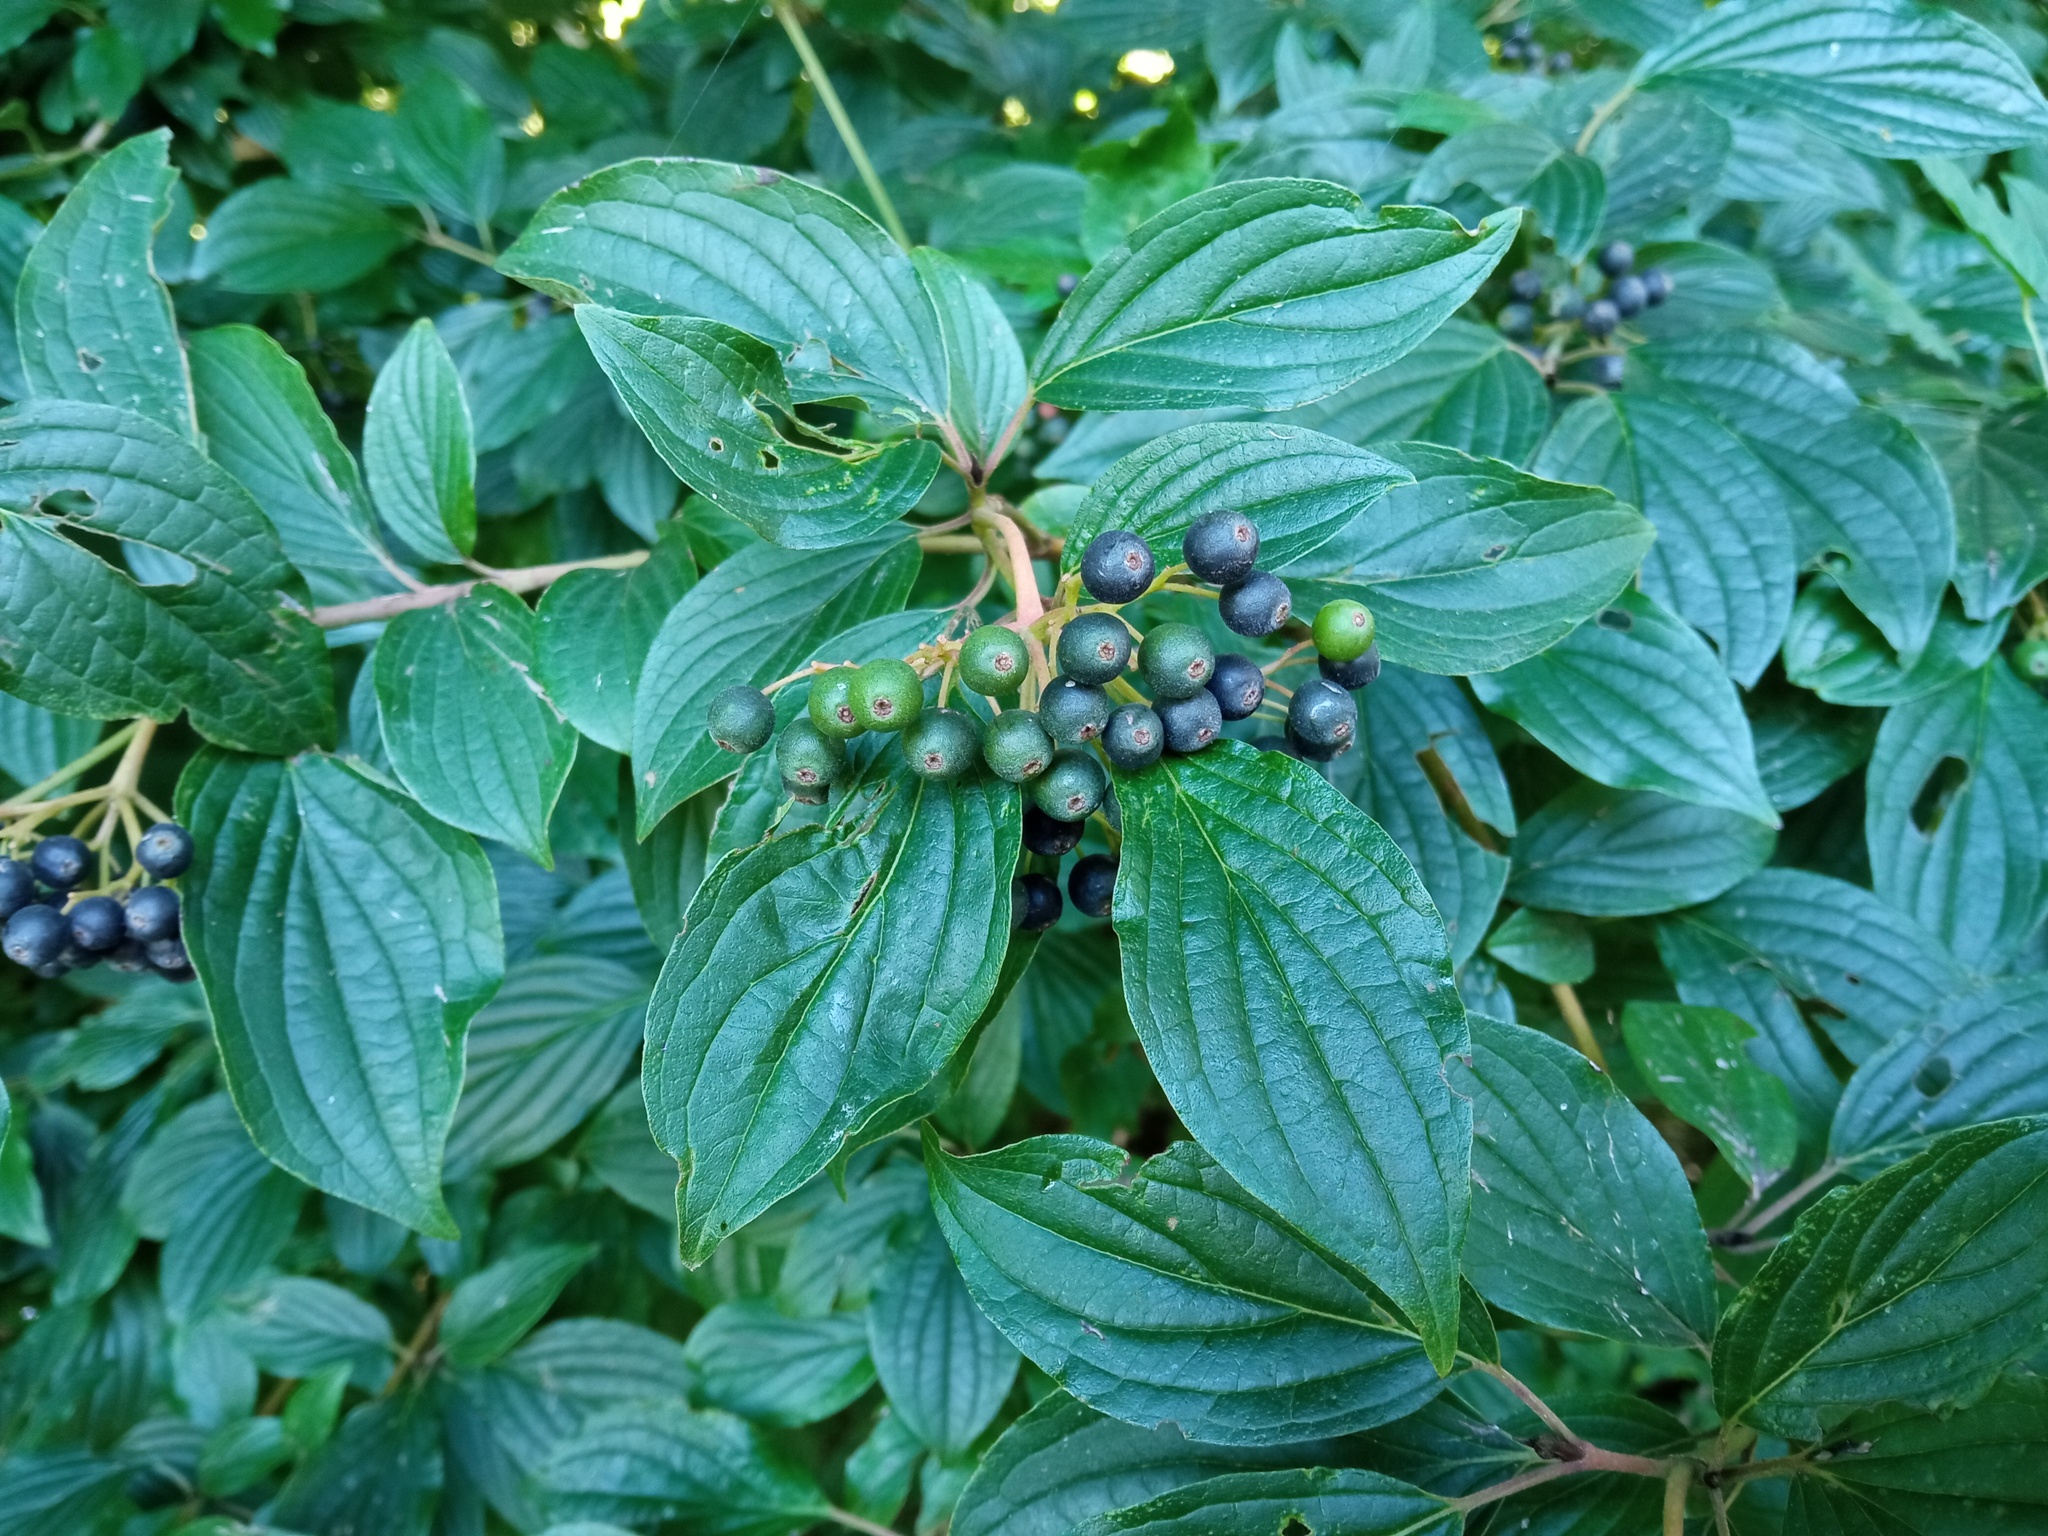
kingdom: Plantae
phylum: Tracheophyta
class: Magnoliopsida
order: Cornales
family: Cornaceae
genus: Cornus
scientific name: Cornus sanguinea
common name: Dogwood
